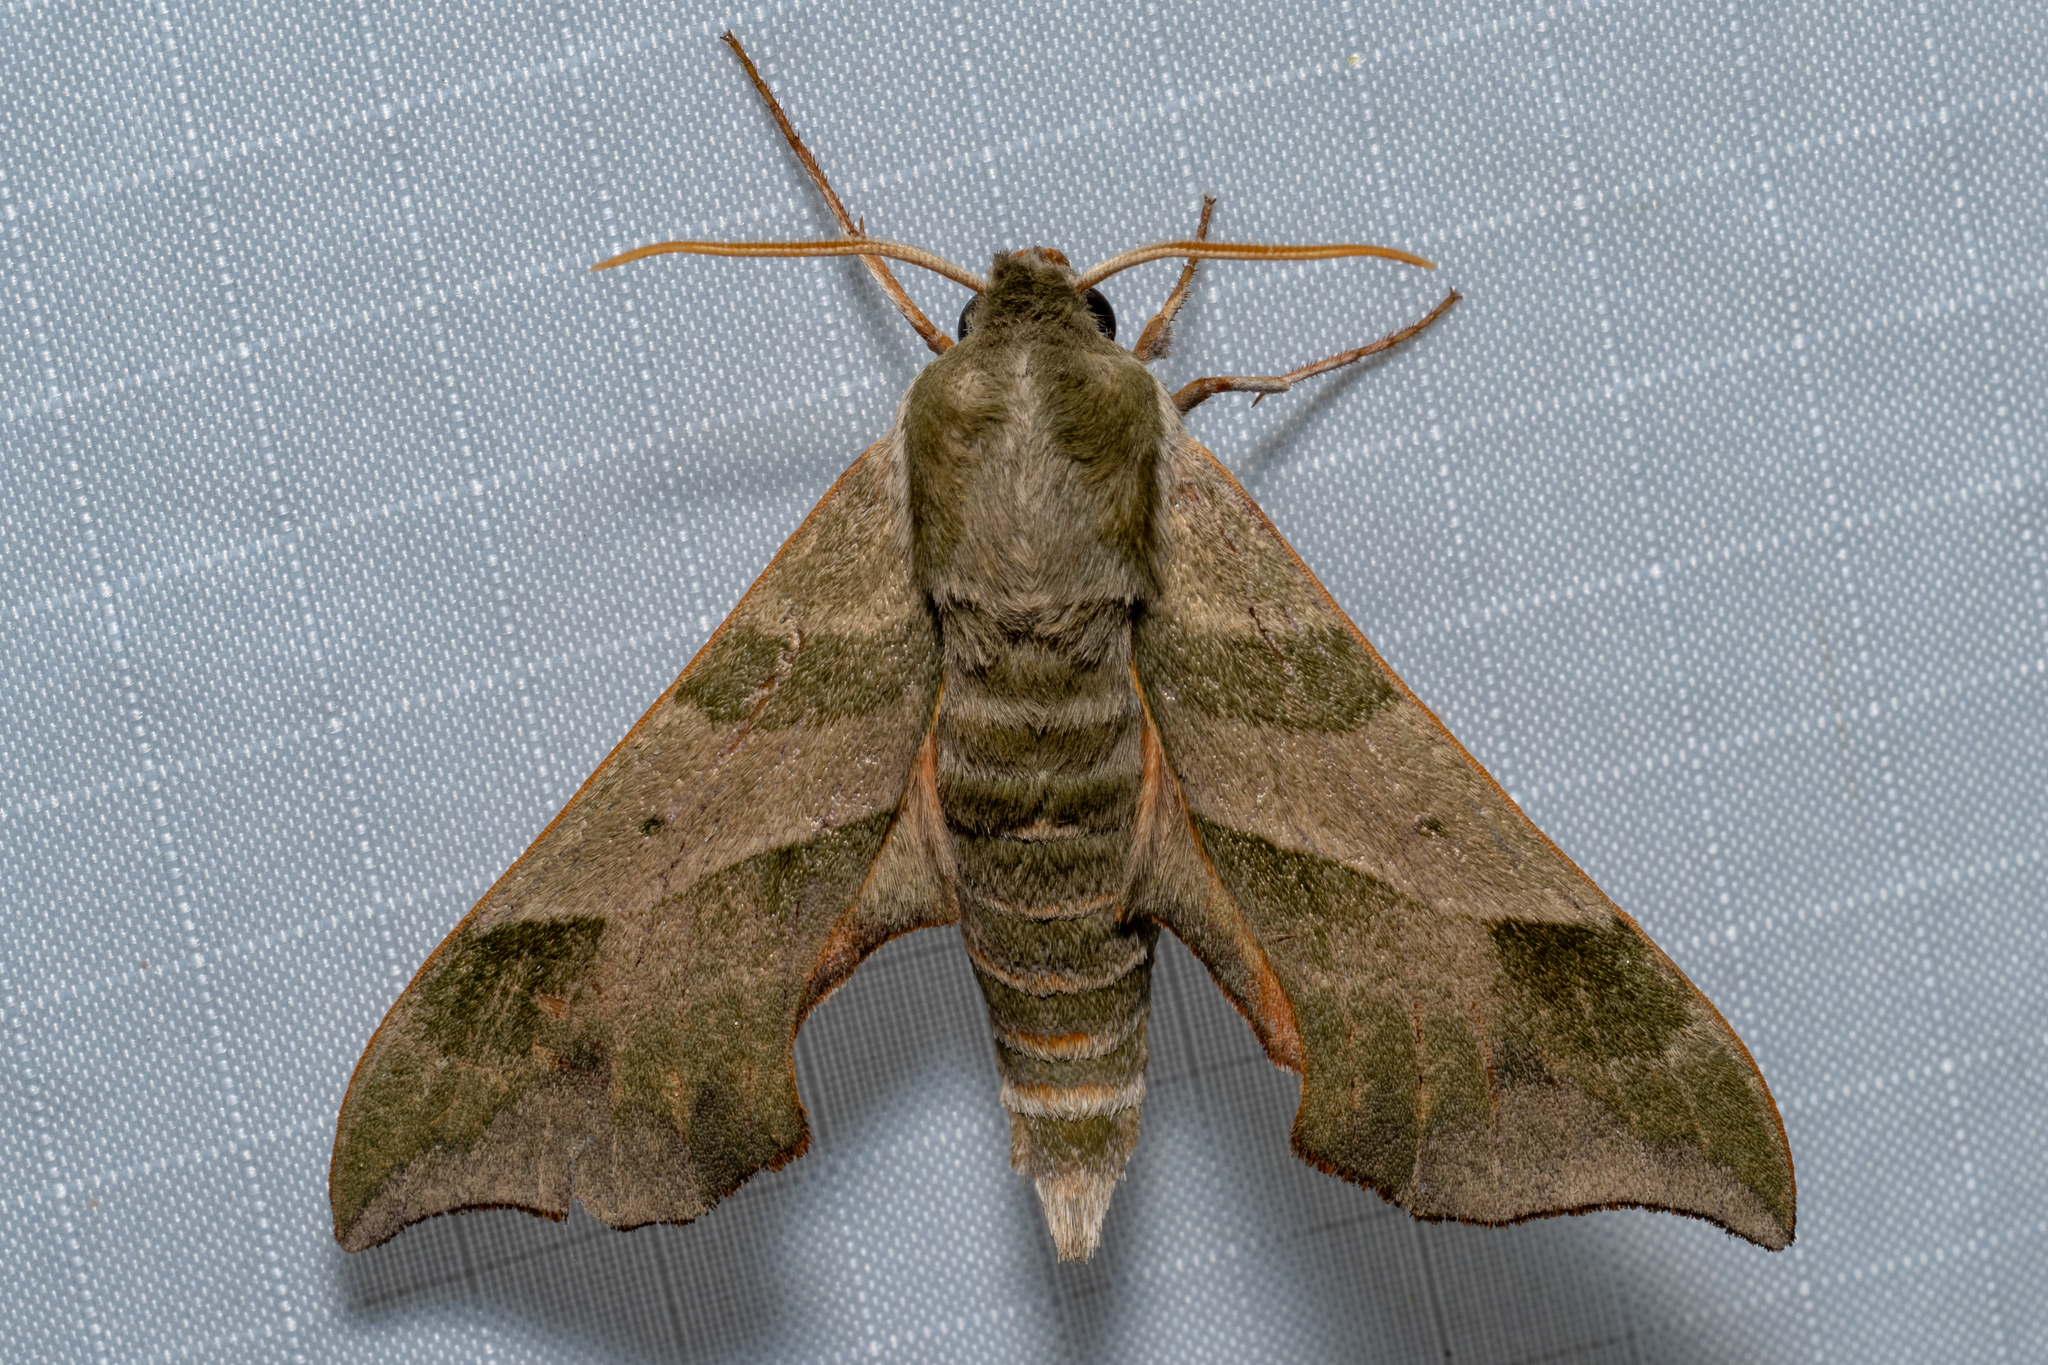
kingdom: Animalia
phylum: Arthropoda
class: Insecta
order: Lepidoptera
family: Sphingidae
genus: Darapsa
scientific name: Darapsa myron
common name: Hog sphinx
